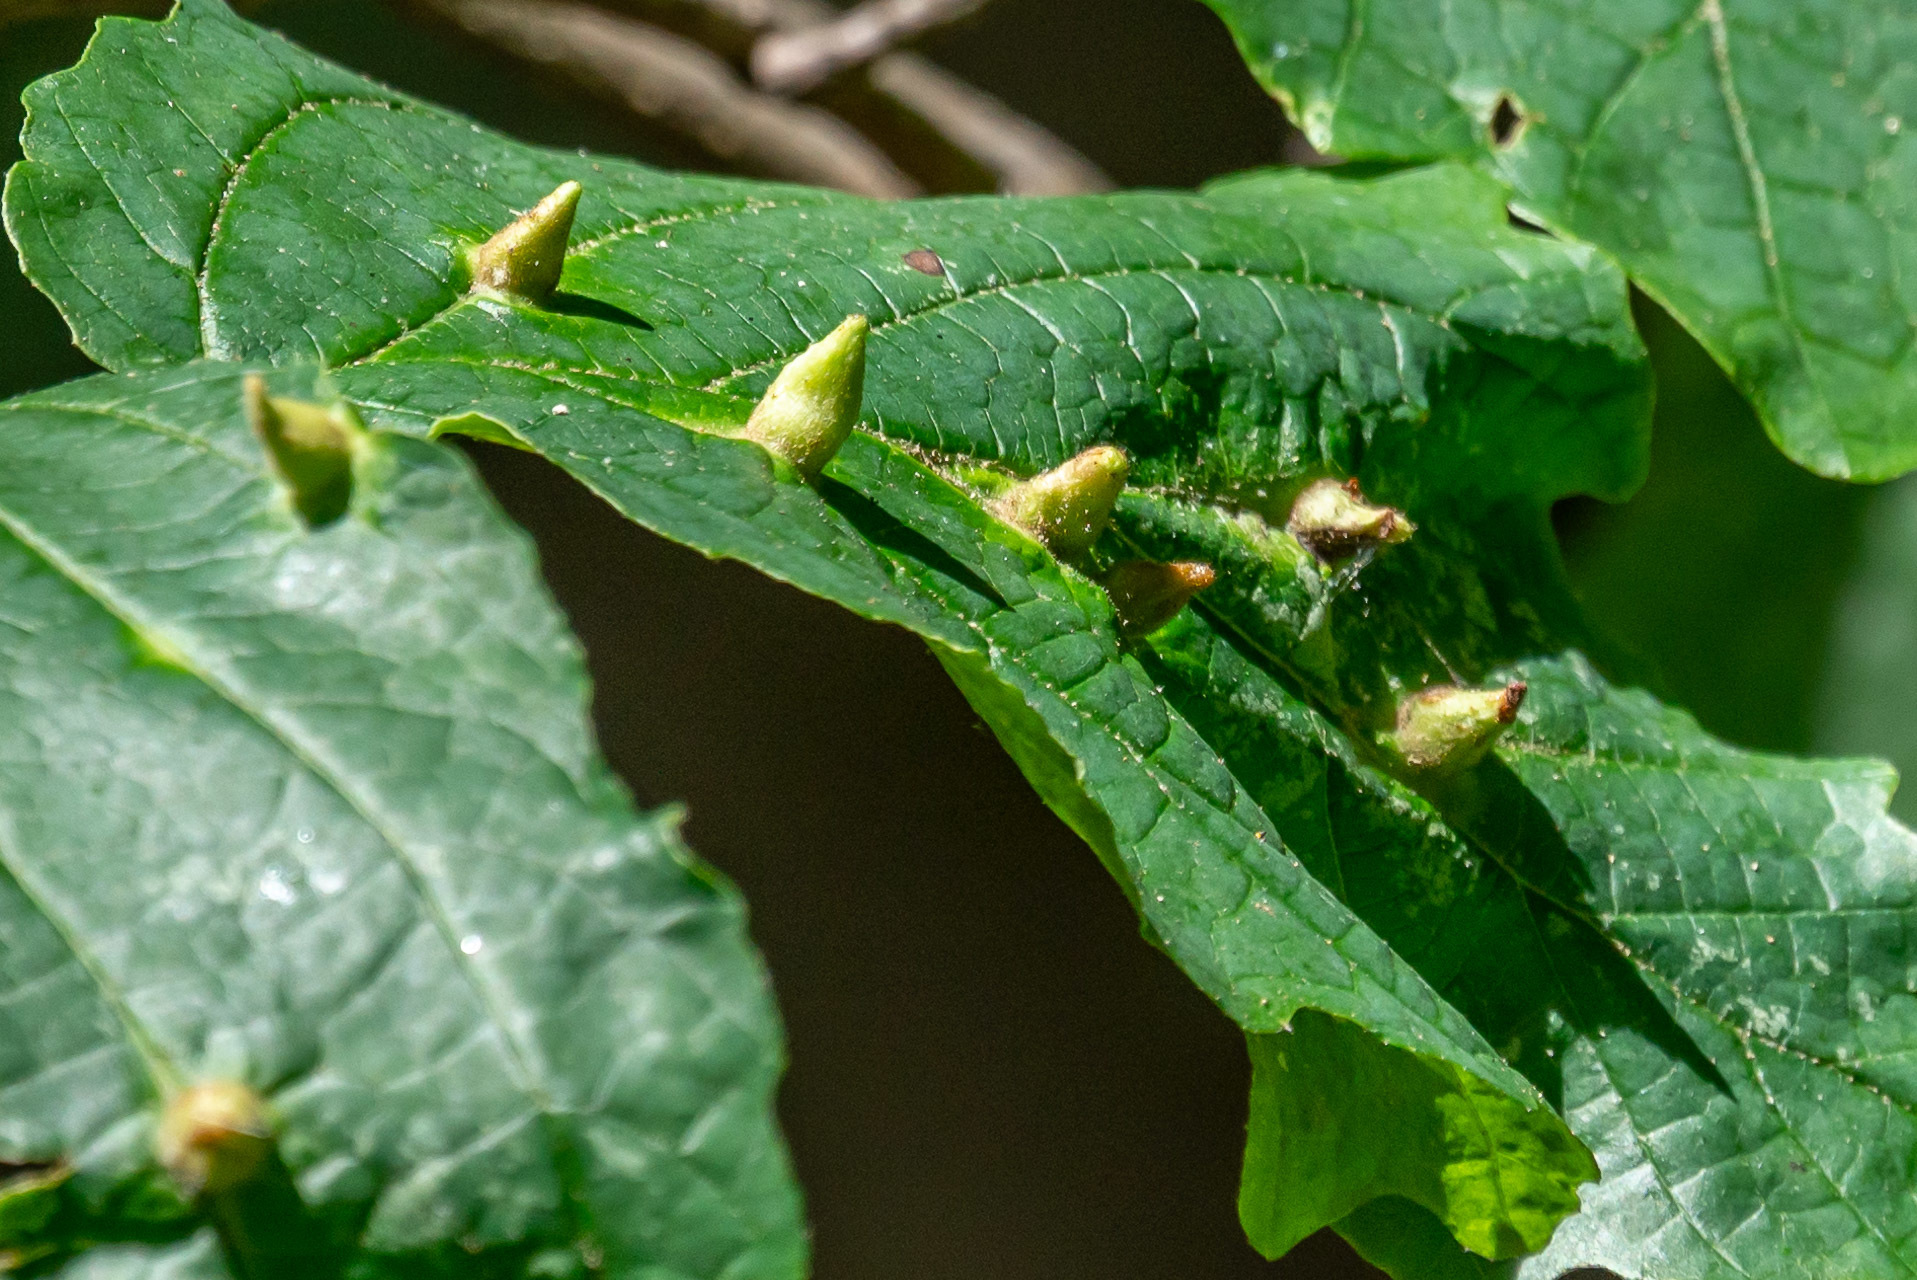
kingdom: Animalia
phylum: Arthropoda
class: Insecta
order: Hemiptera
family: Aphididae
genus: Hormaphis
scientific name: Hormaphis hamamelidis
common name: Witch-hazel cone gall aphid
